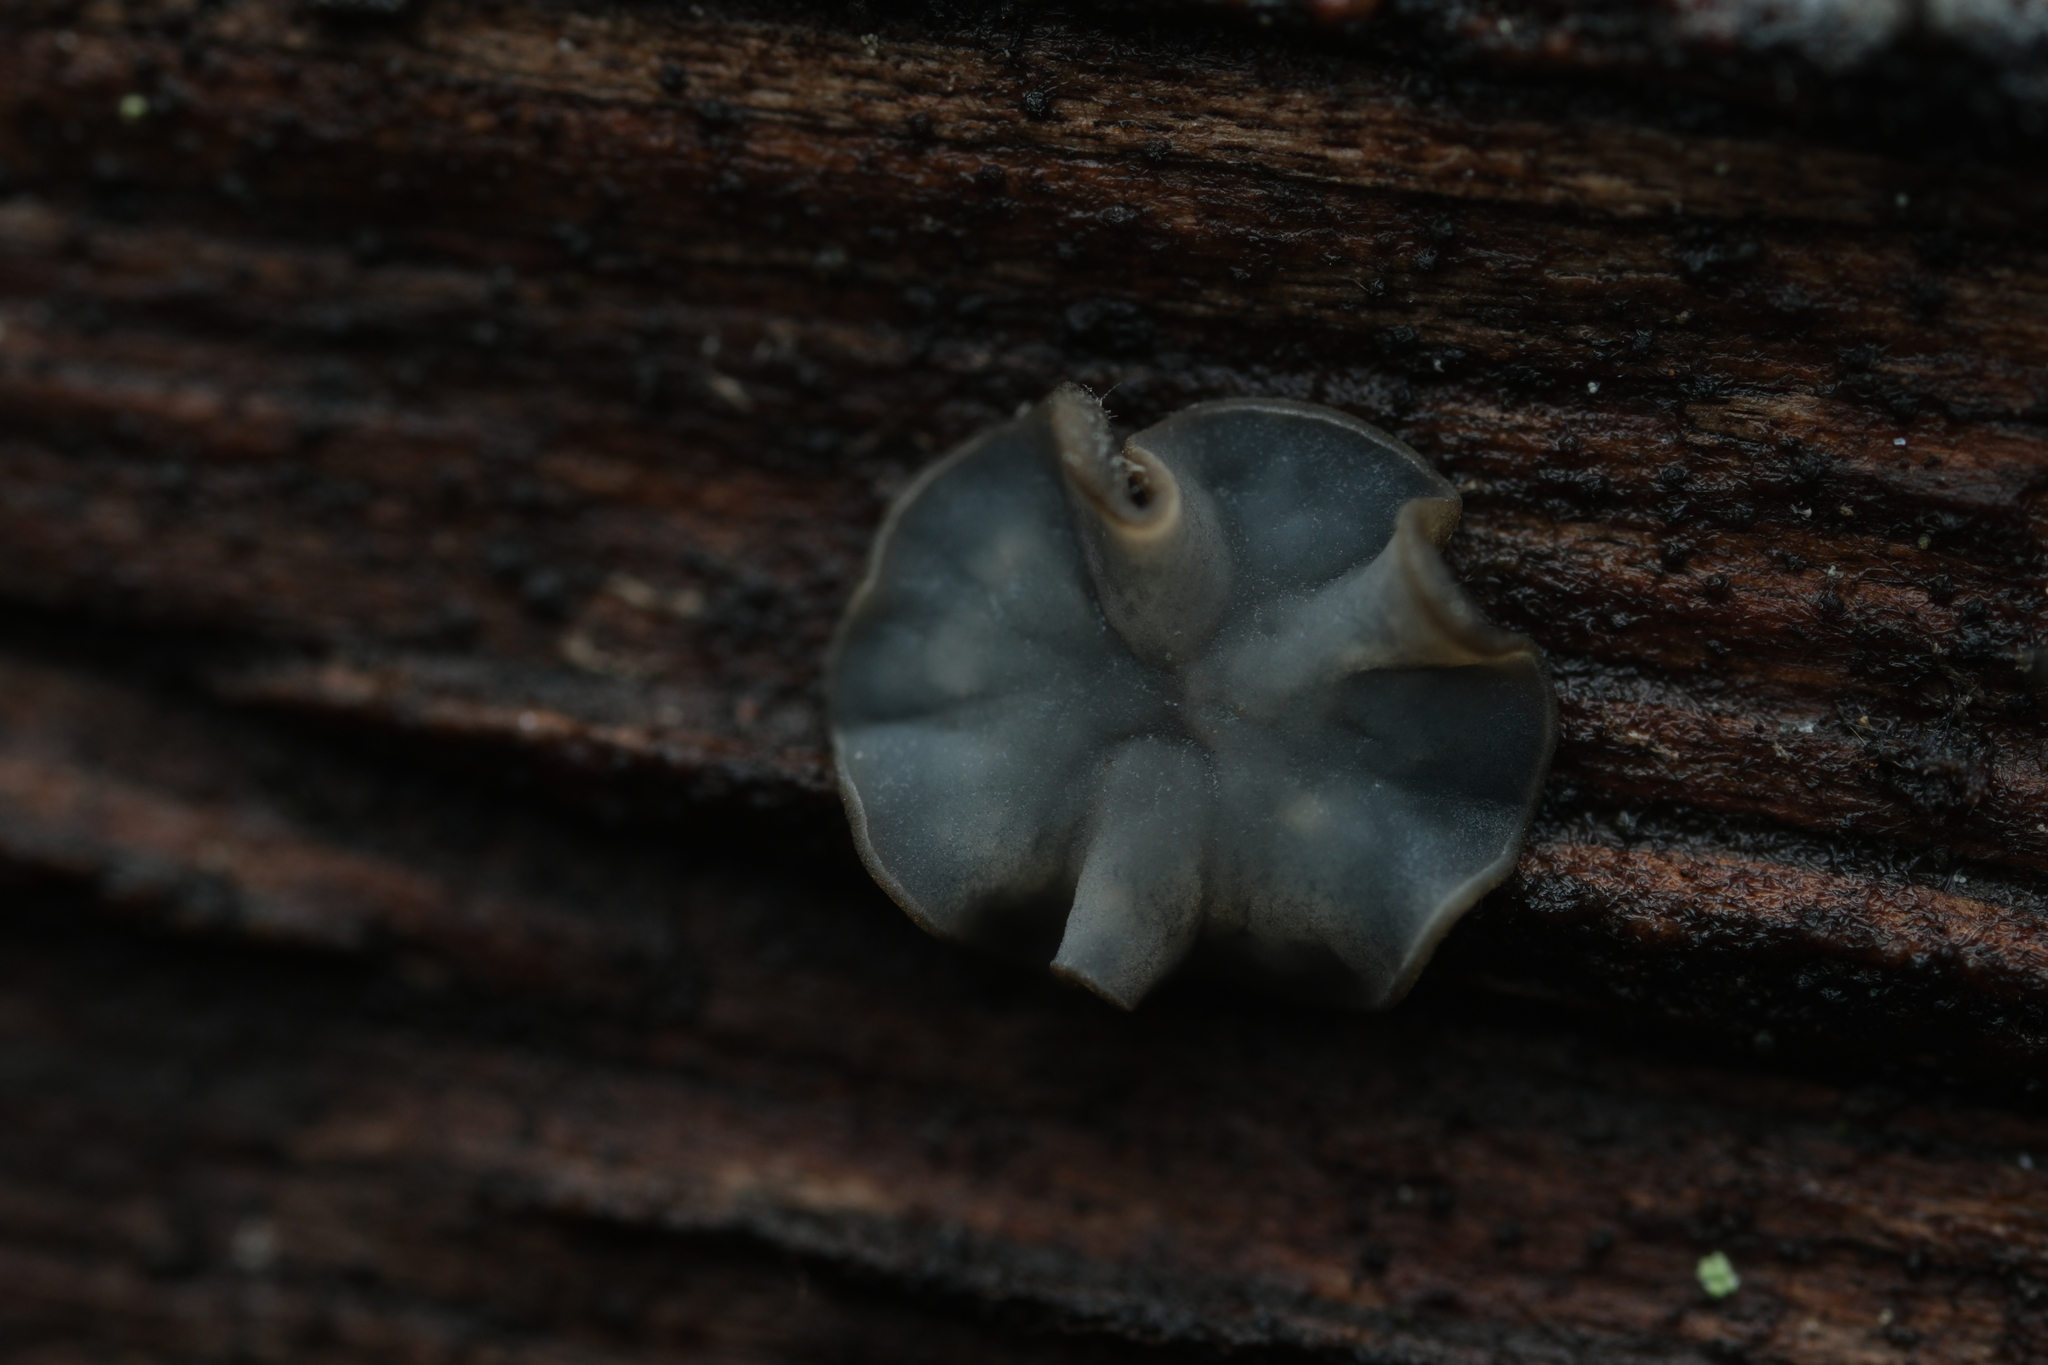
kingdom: Fungi
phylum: Ascomycota
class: Leotiomycetes
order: Helotiales
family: Mollisiaceae
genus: Mollisia
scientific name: Mollisia
